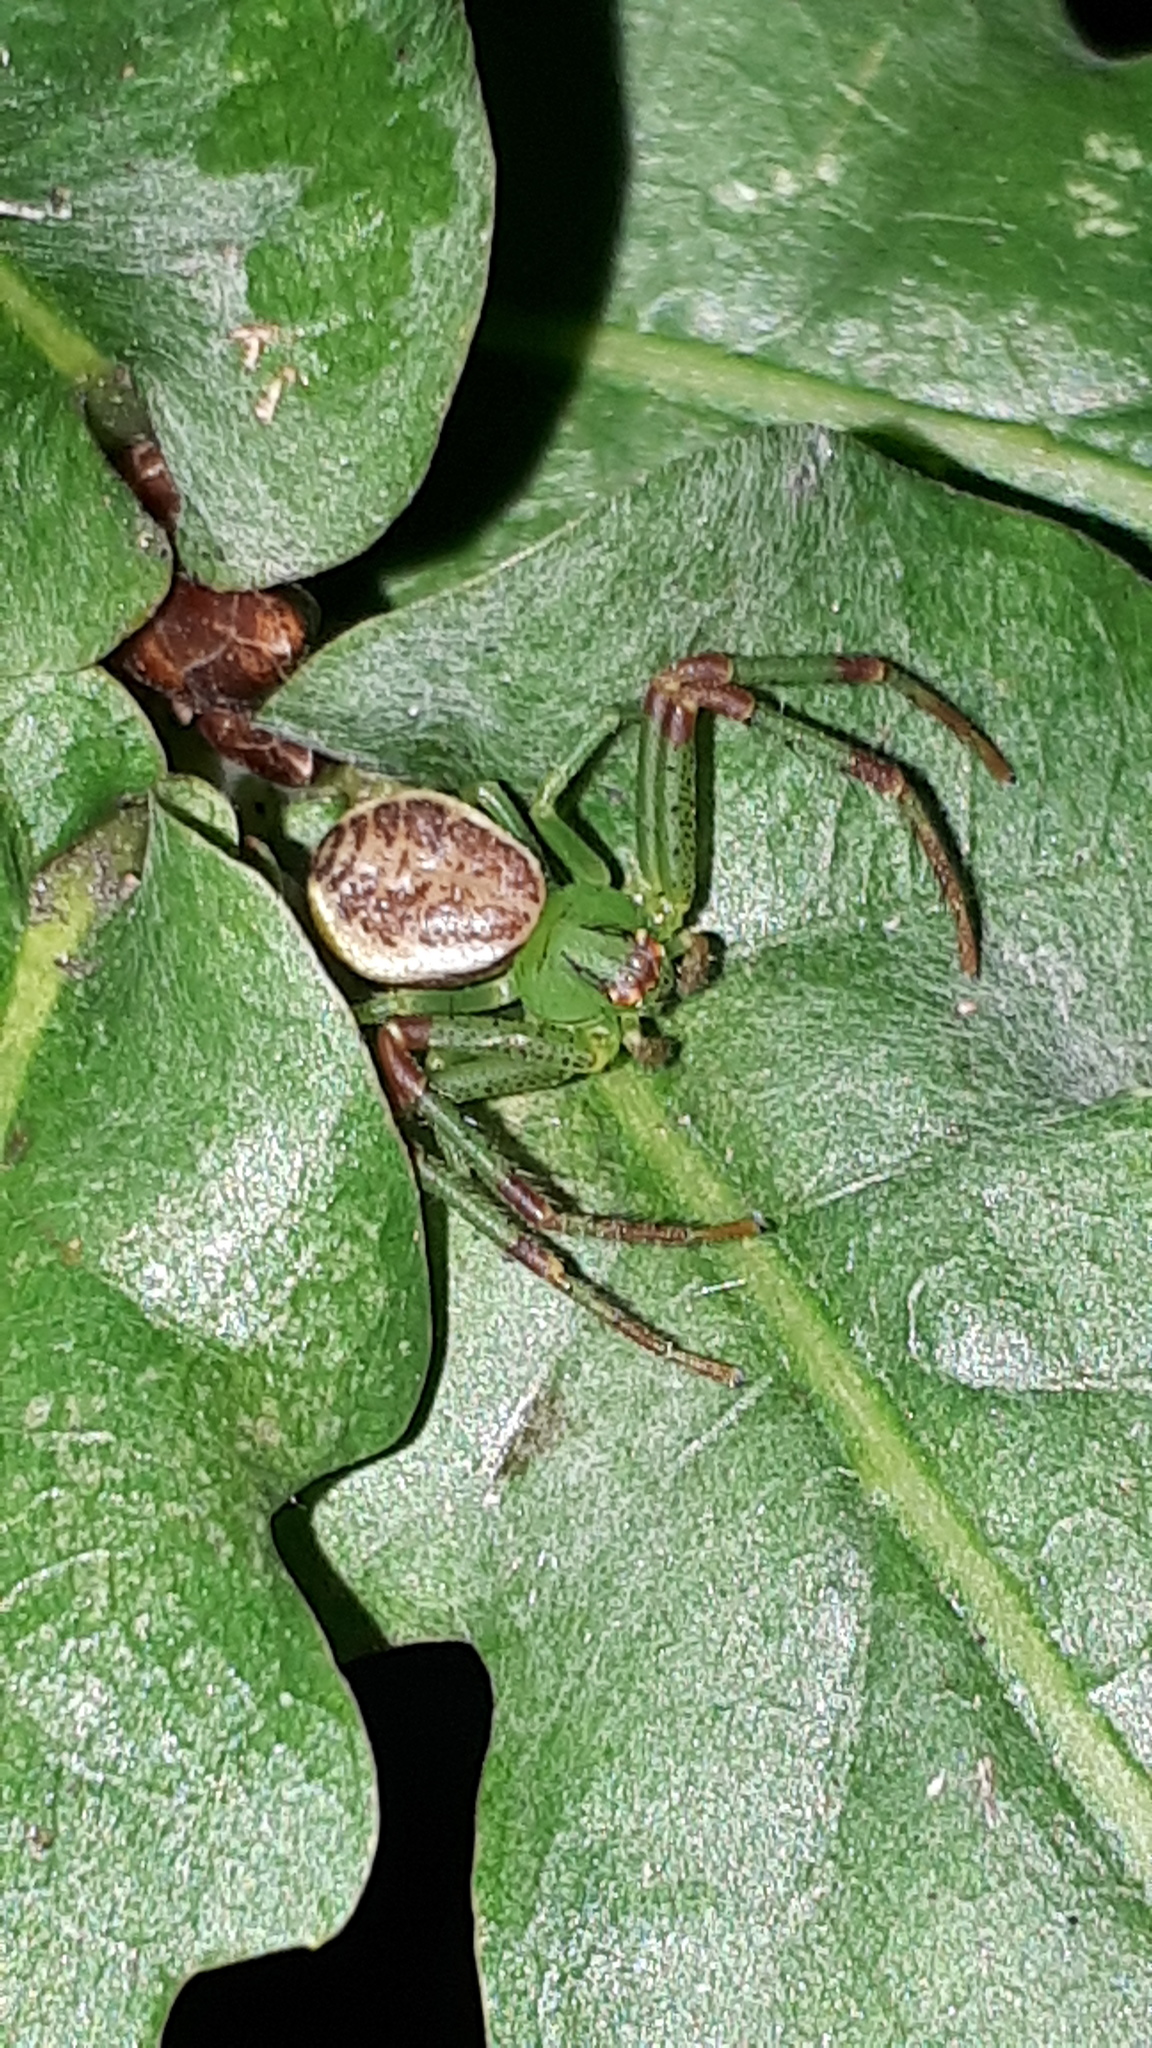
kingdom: Animalia
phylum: Arthropoda
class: Arachnida
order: Araneae
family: Thomisidae
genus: Diaea
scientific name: Diaea dorsata
